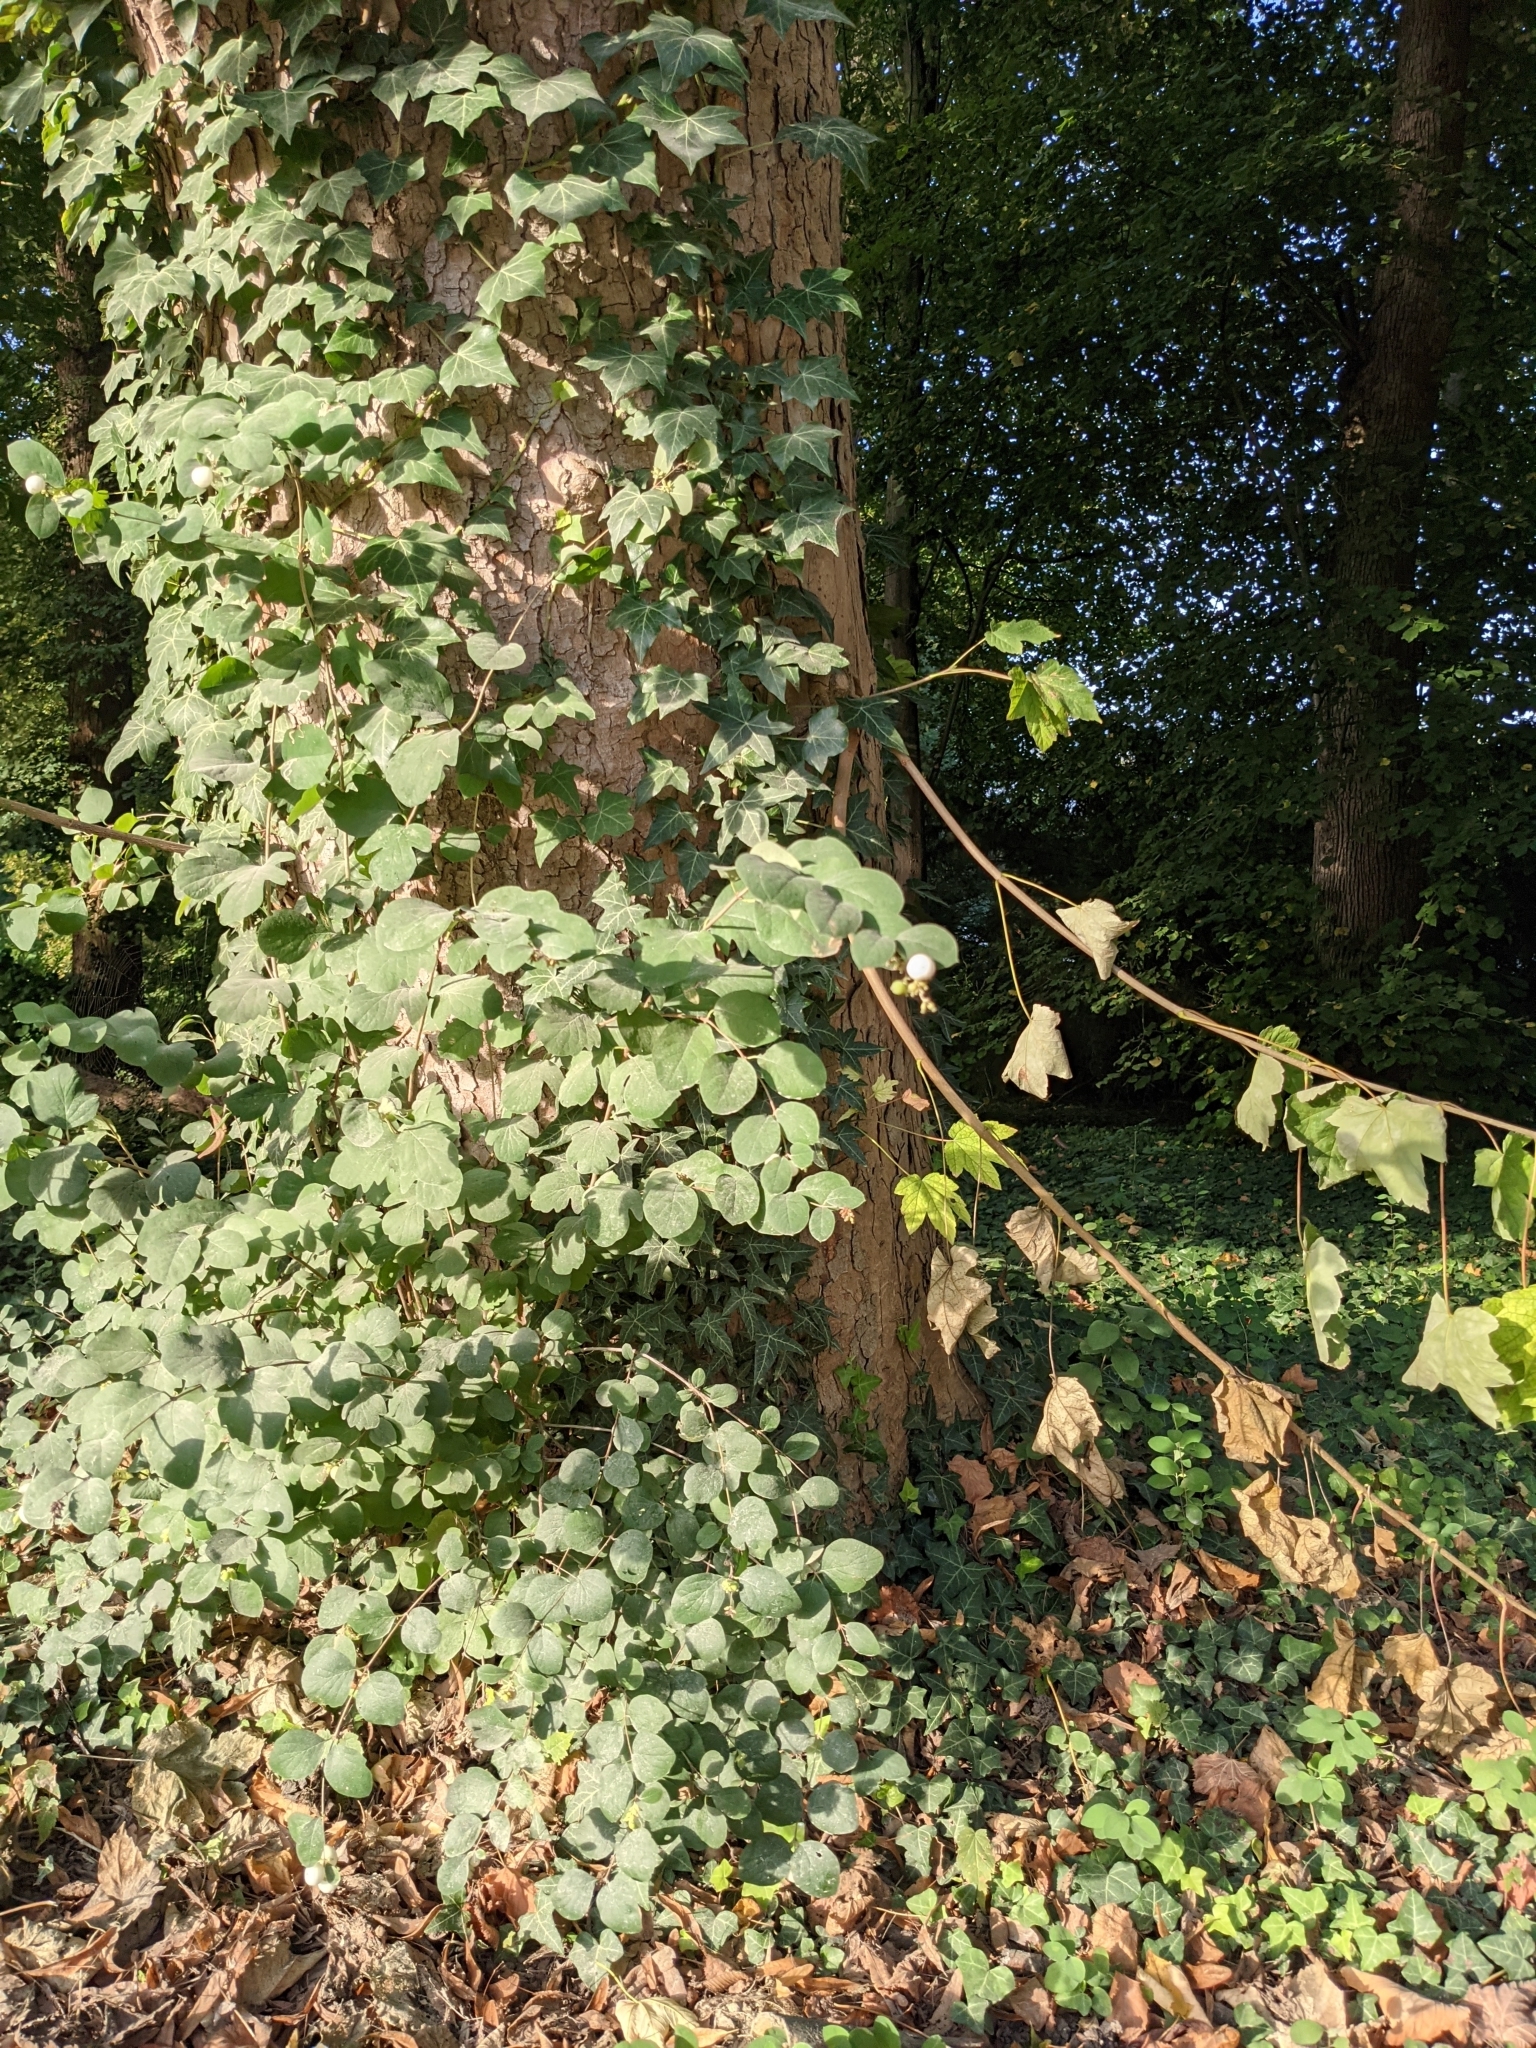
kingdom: Plantae
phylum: Tracheophyta
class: Magnoliopsida
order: Dipsacales
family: Caprifoliaceae
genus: Symphoricarpos
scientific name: Symphoricarpos albus
